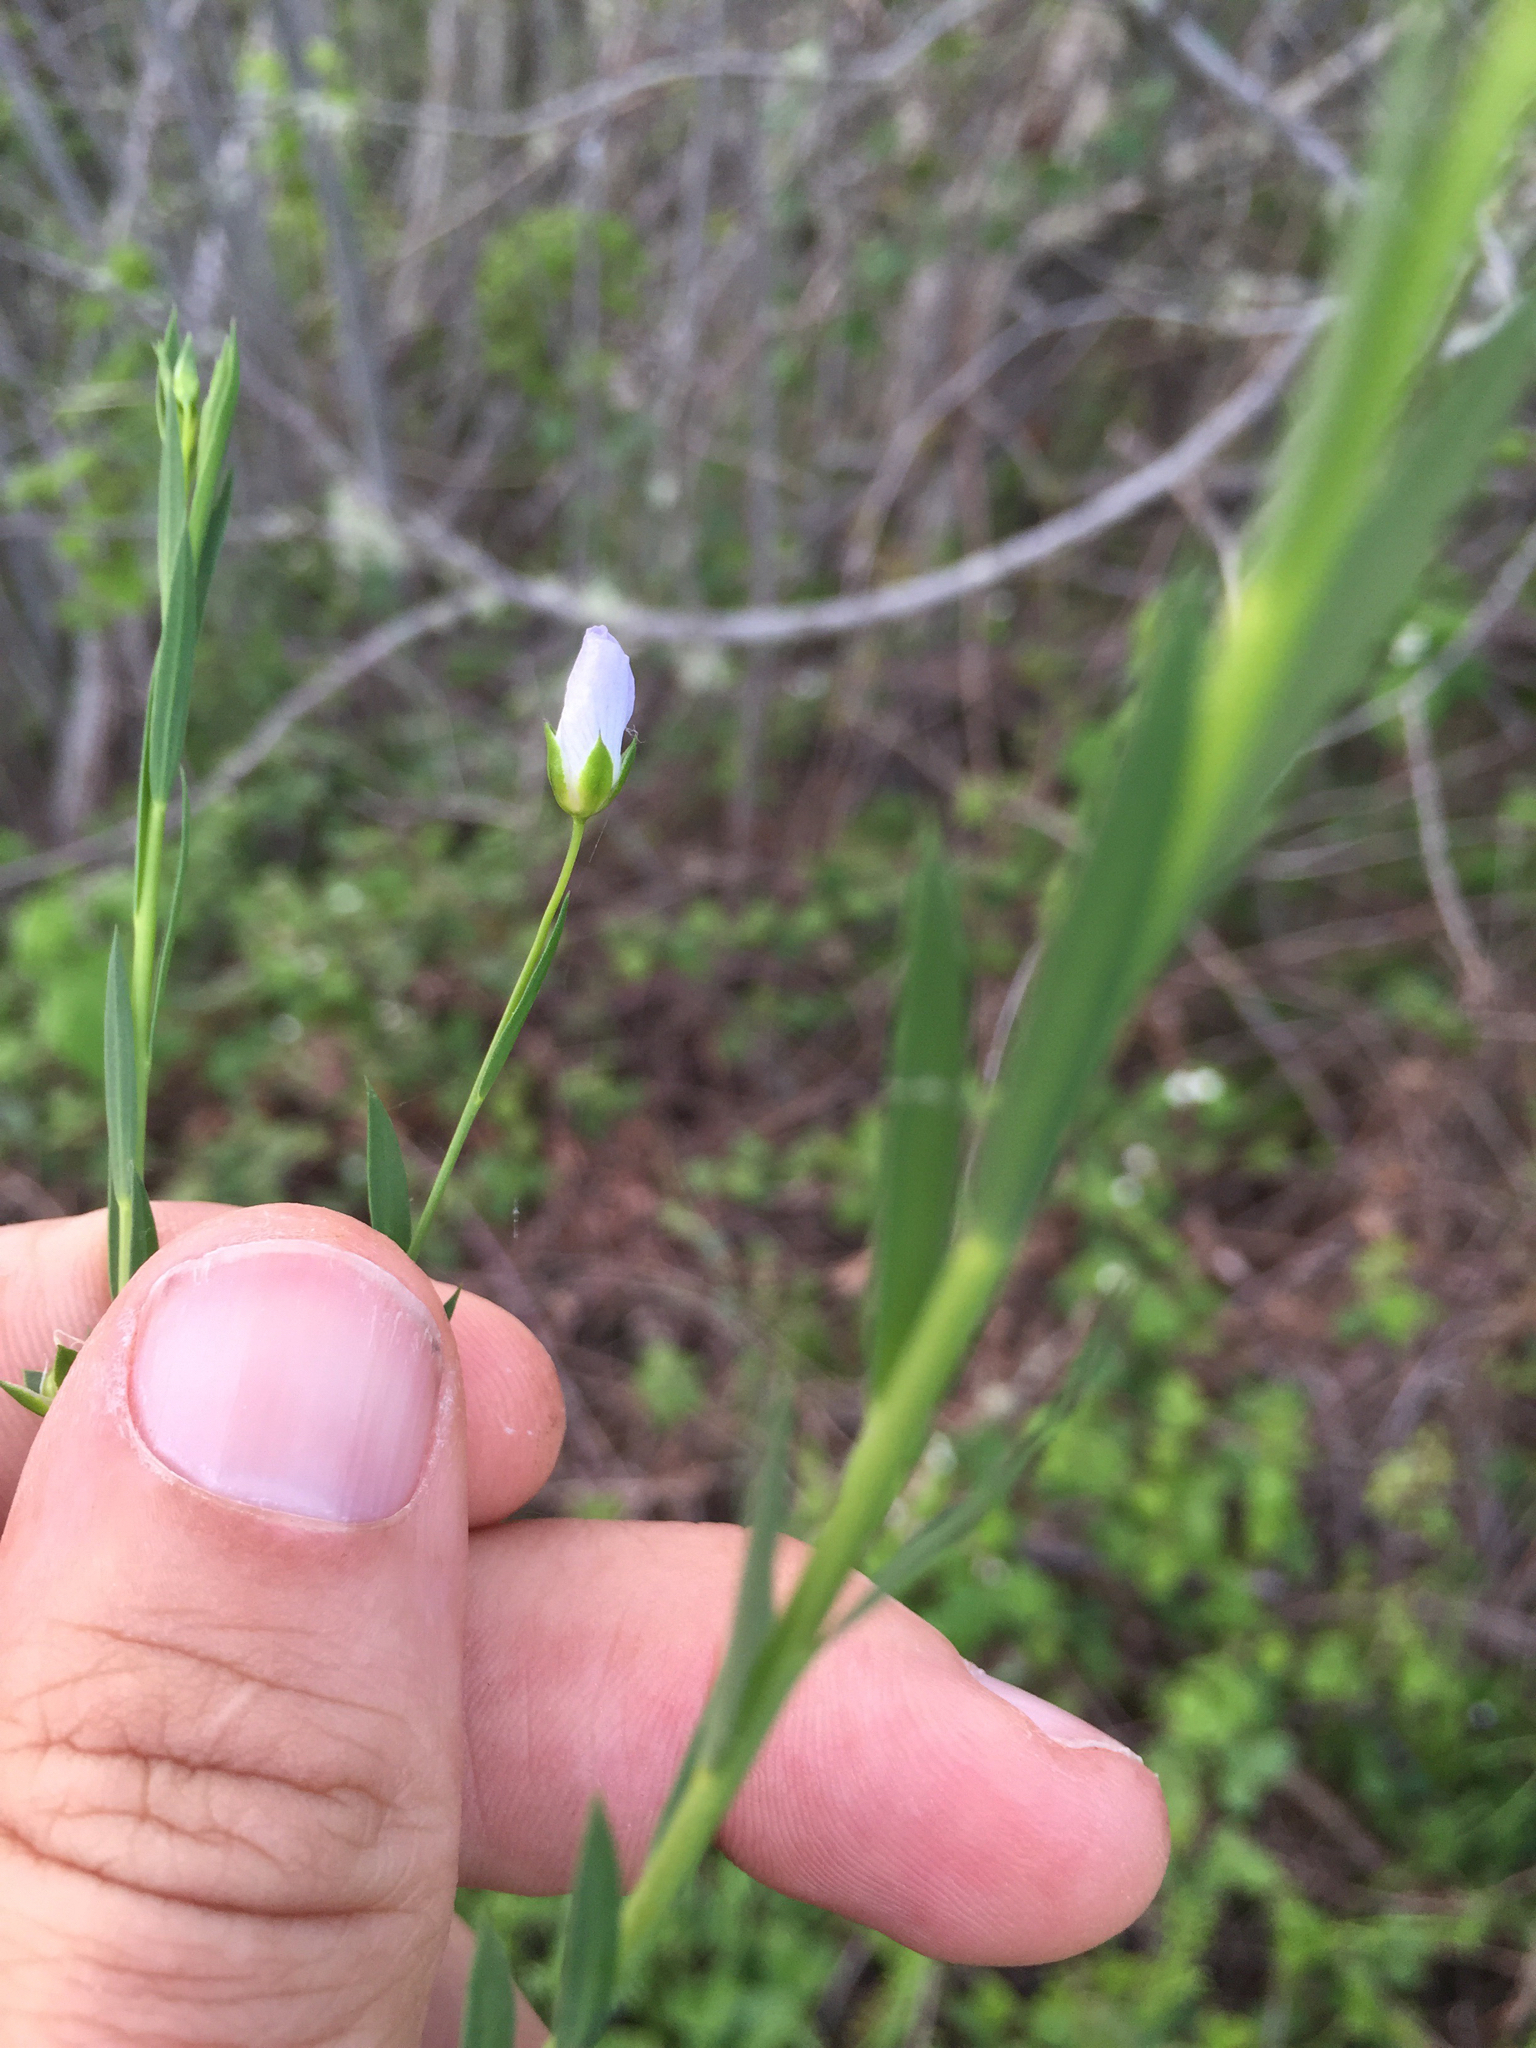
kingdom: Plantae
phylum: Tracheophyta
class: Magnoliopsida
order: Malpighiales
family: Linaceae
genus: Linum
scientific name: Linum bienne
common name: Pale flax
